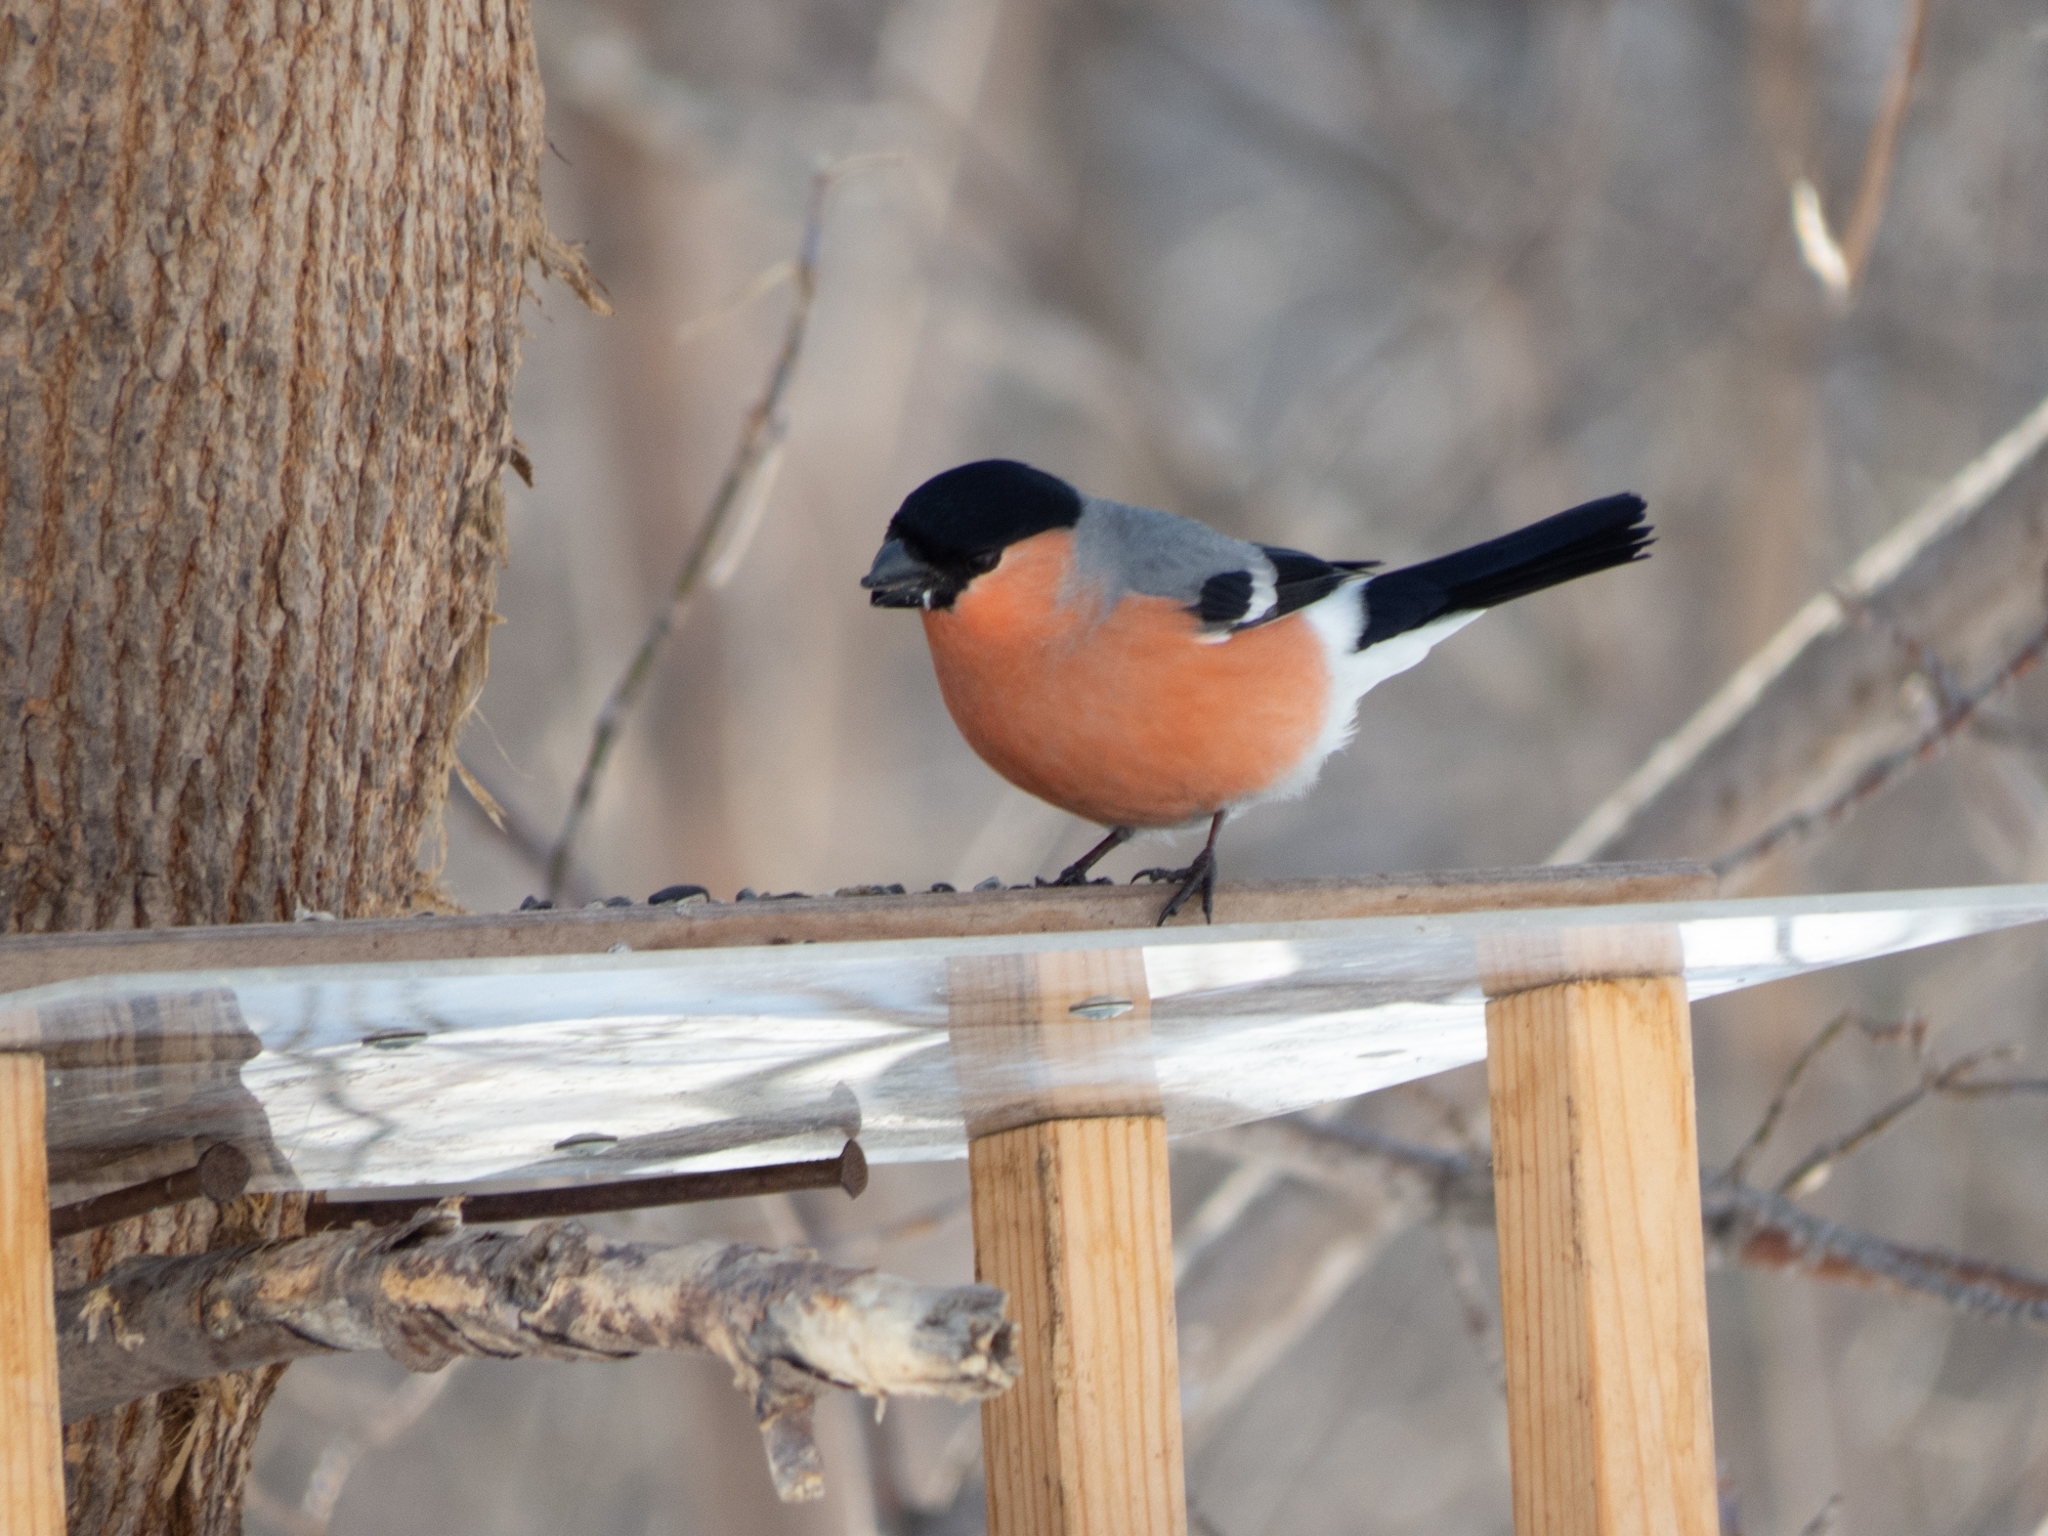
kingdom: Animalia
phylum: Chordata
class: Aves
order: Passeriformes
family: Fringillidae
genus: Pyrrhula
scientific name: Pyrrhula pyrrhula
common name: Eurasian bullfinch
